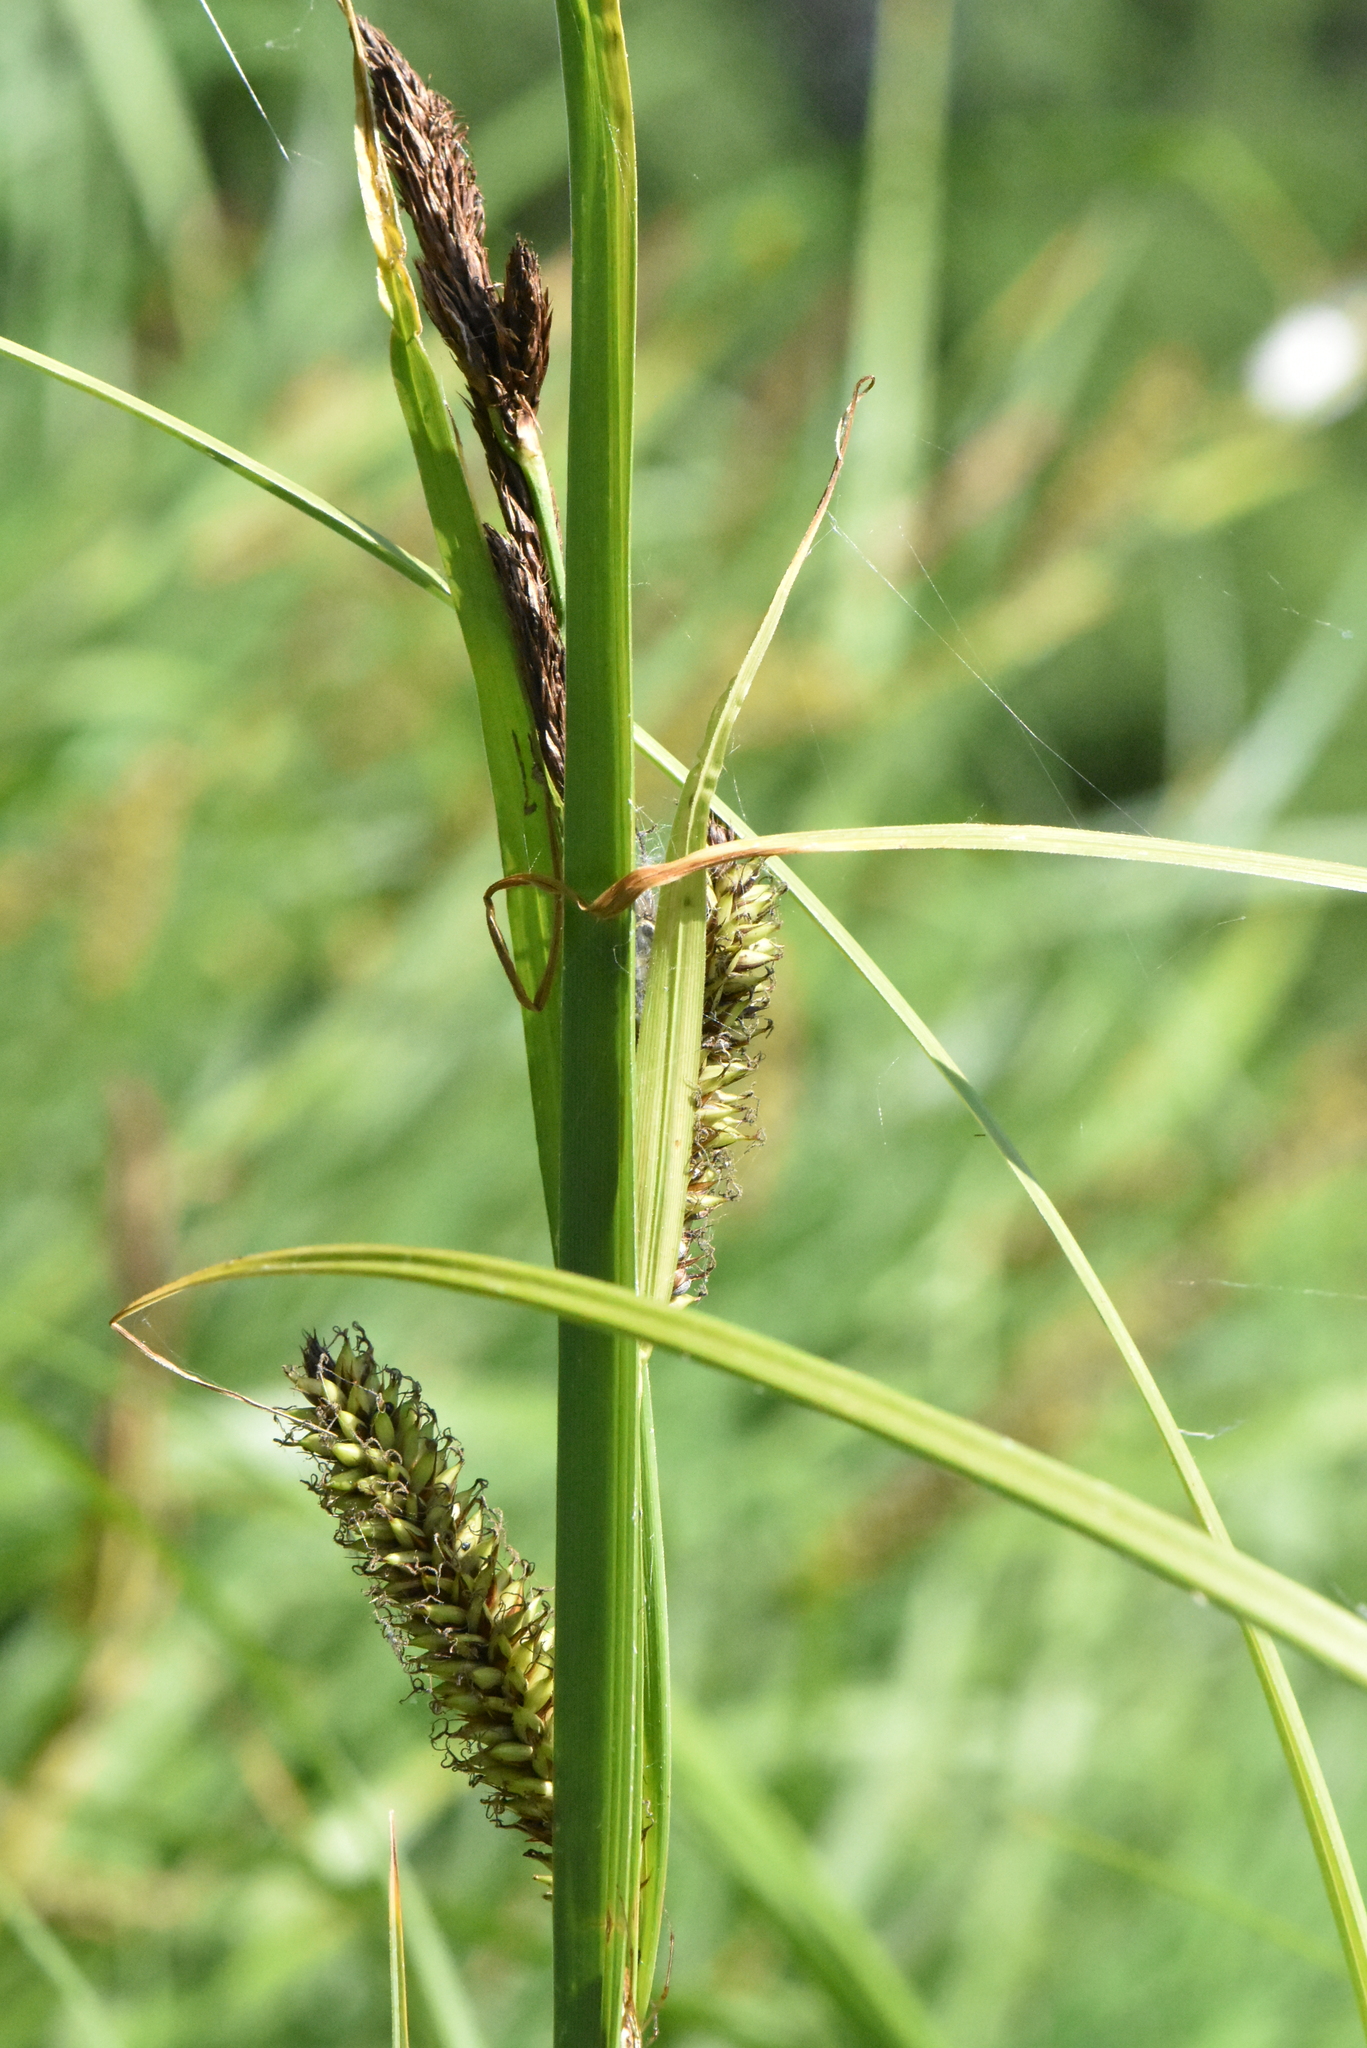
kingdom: Plantae
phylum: Tracheophyta
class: Liliopsida
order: Poales
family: Cyperaceae
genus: Carex
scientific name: Carex riparia
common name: Greater pond-sedge
